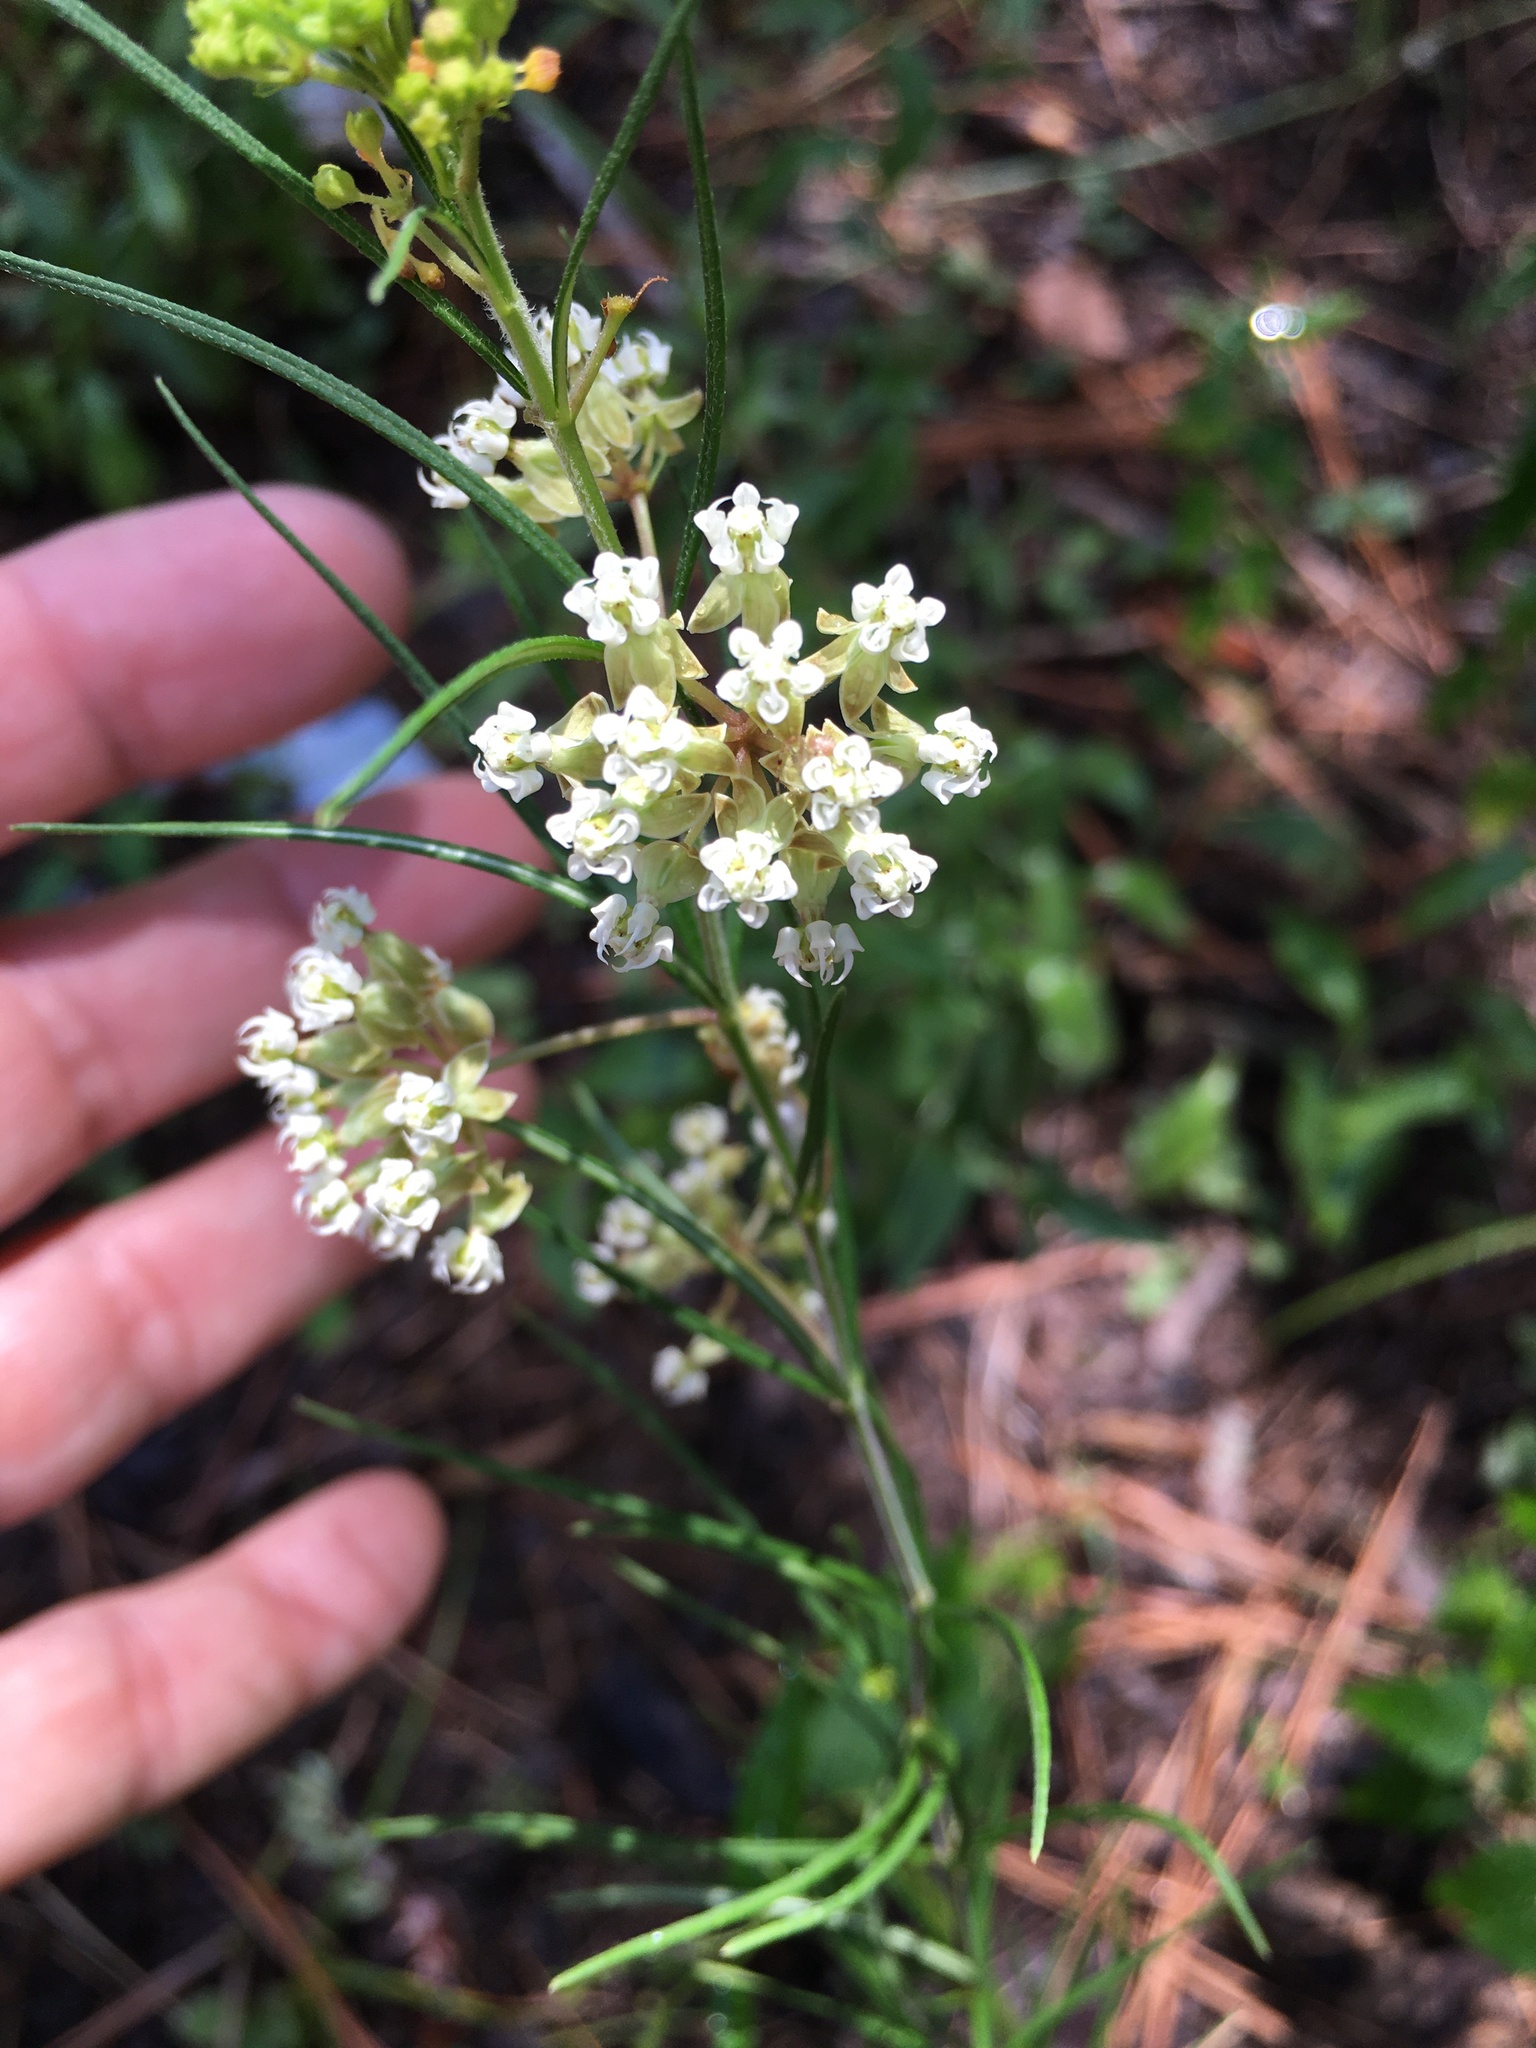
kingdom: Plantae
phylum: Tracheophyta
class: Magnoliopsida
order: Gentianales
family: Apocynaceae
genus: Asclepias
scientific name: Asclepias verticillata
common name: Eastern whorled milkweed
